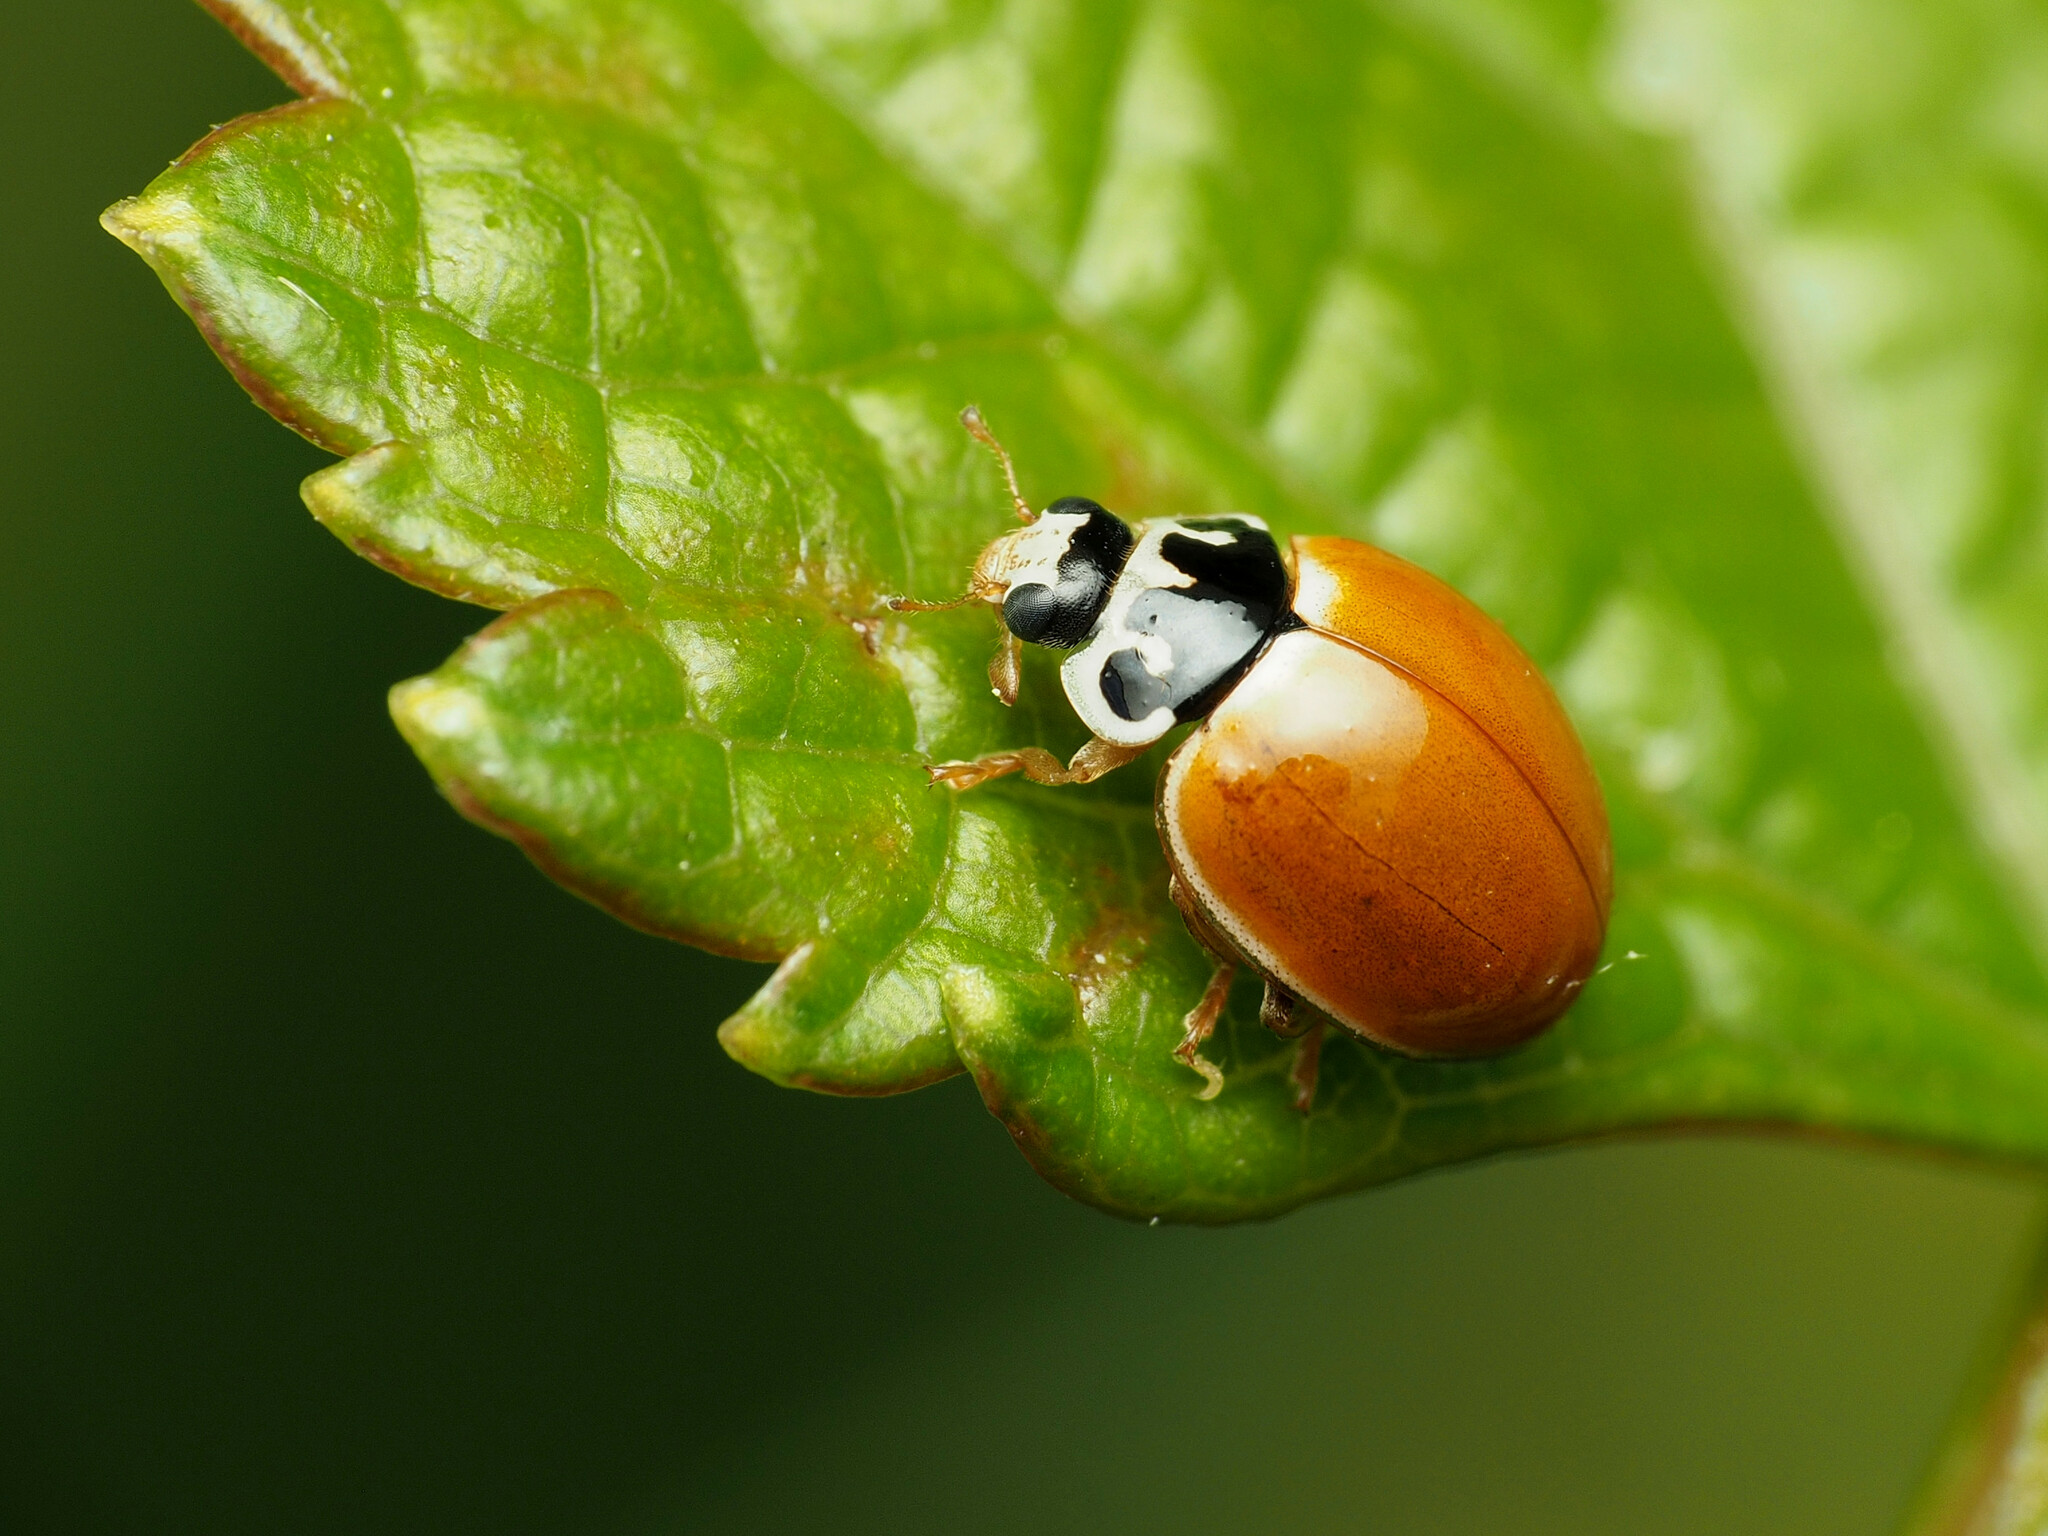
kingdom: Animalia
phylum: Arthropoda
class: Insecta
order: Coleoptera
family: Coccinellidae
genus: Cycloneda
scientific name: Cycloneda munda
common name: Polished lady beetle
